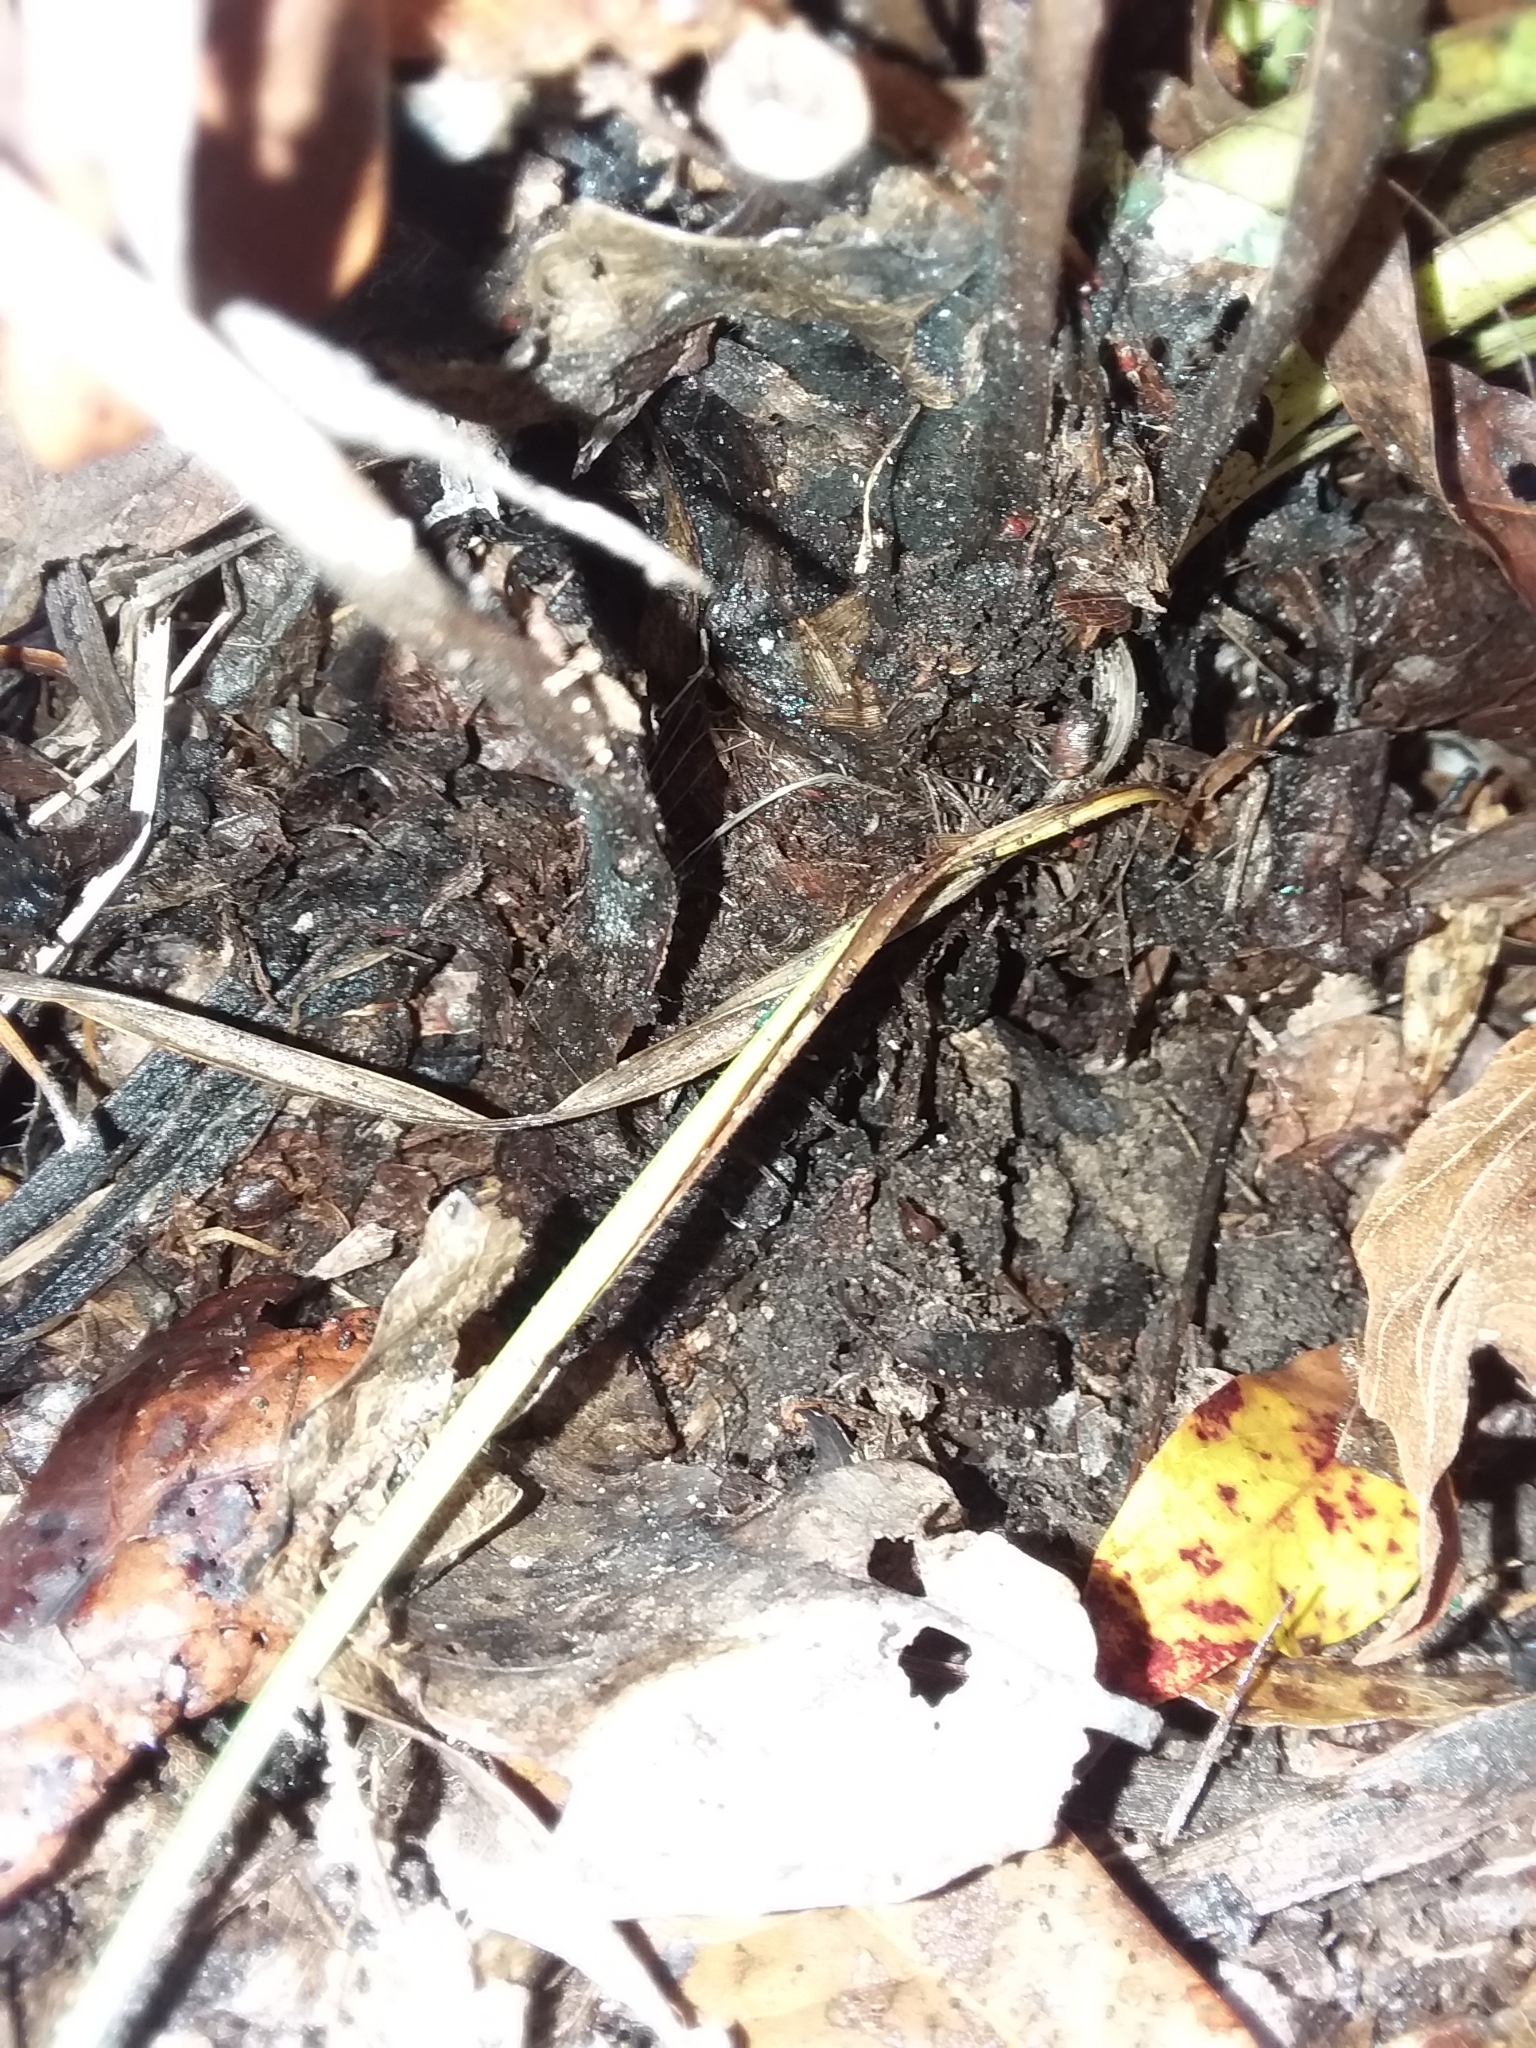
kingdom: Plantae
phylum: Tracheophyta
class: Liliopsida
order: Asparagales
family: Asparagaceae
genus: Yucca
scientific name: Yucca flaccida
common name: Adam's-needle
